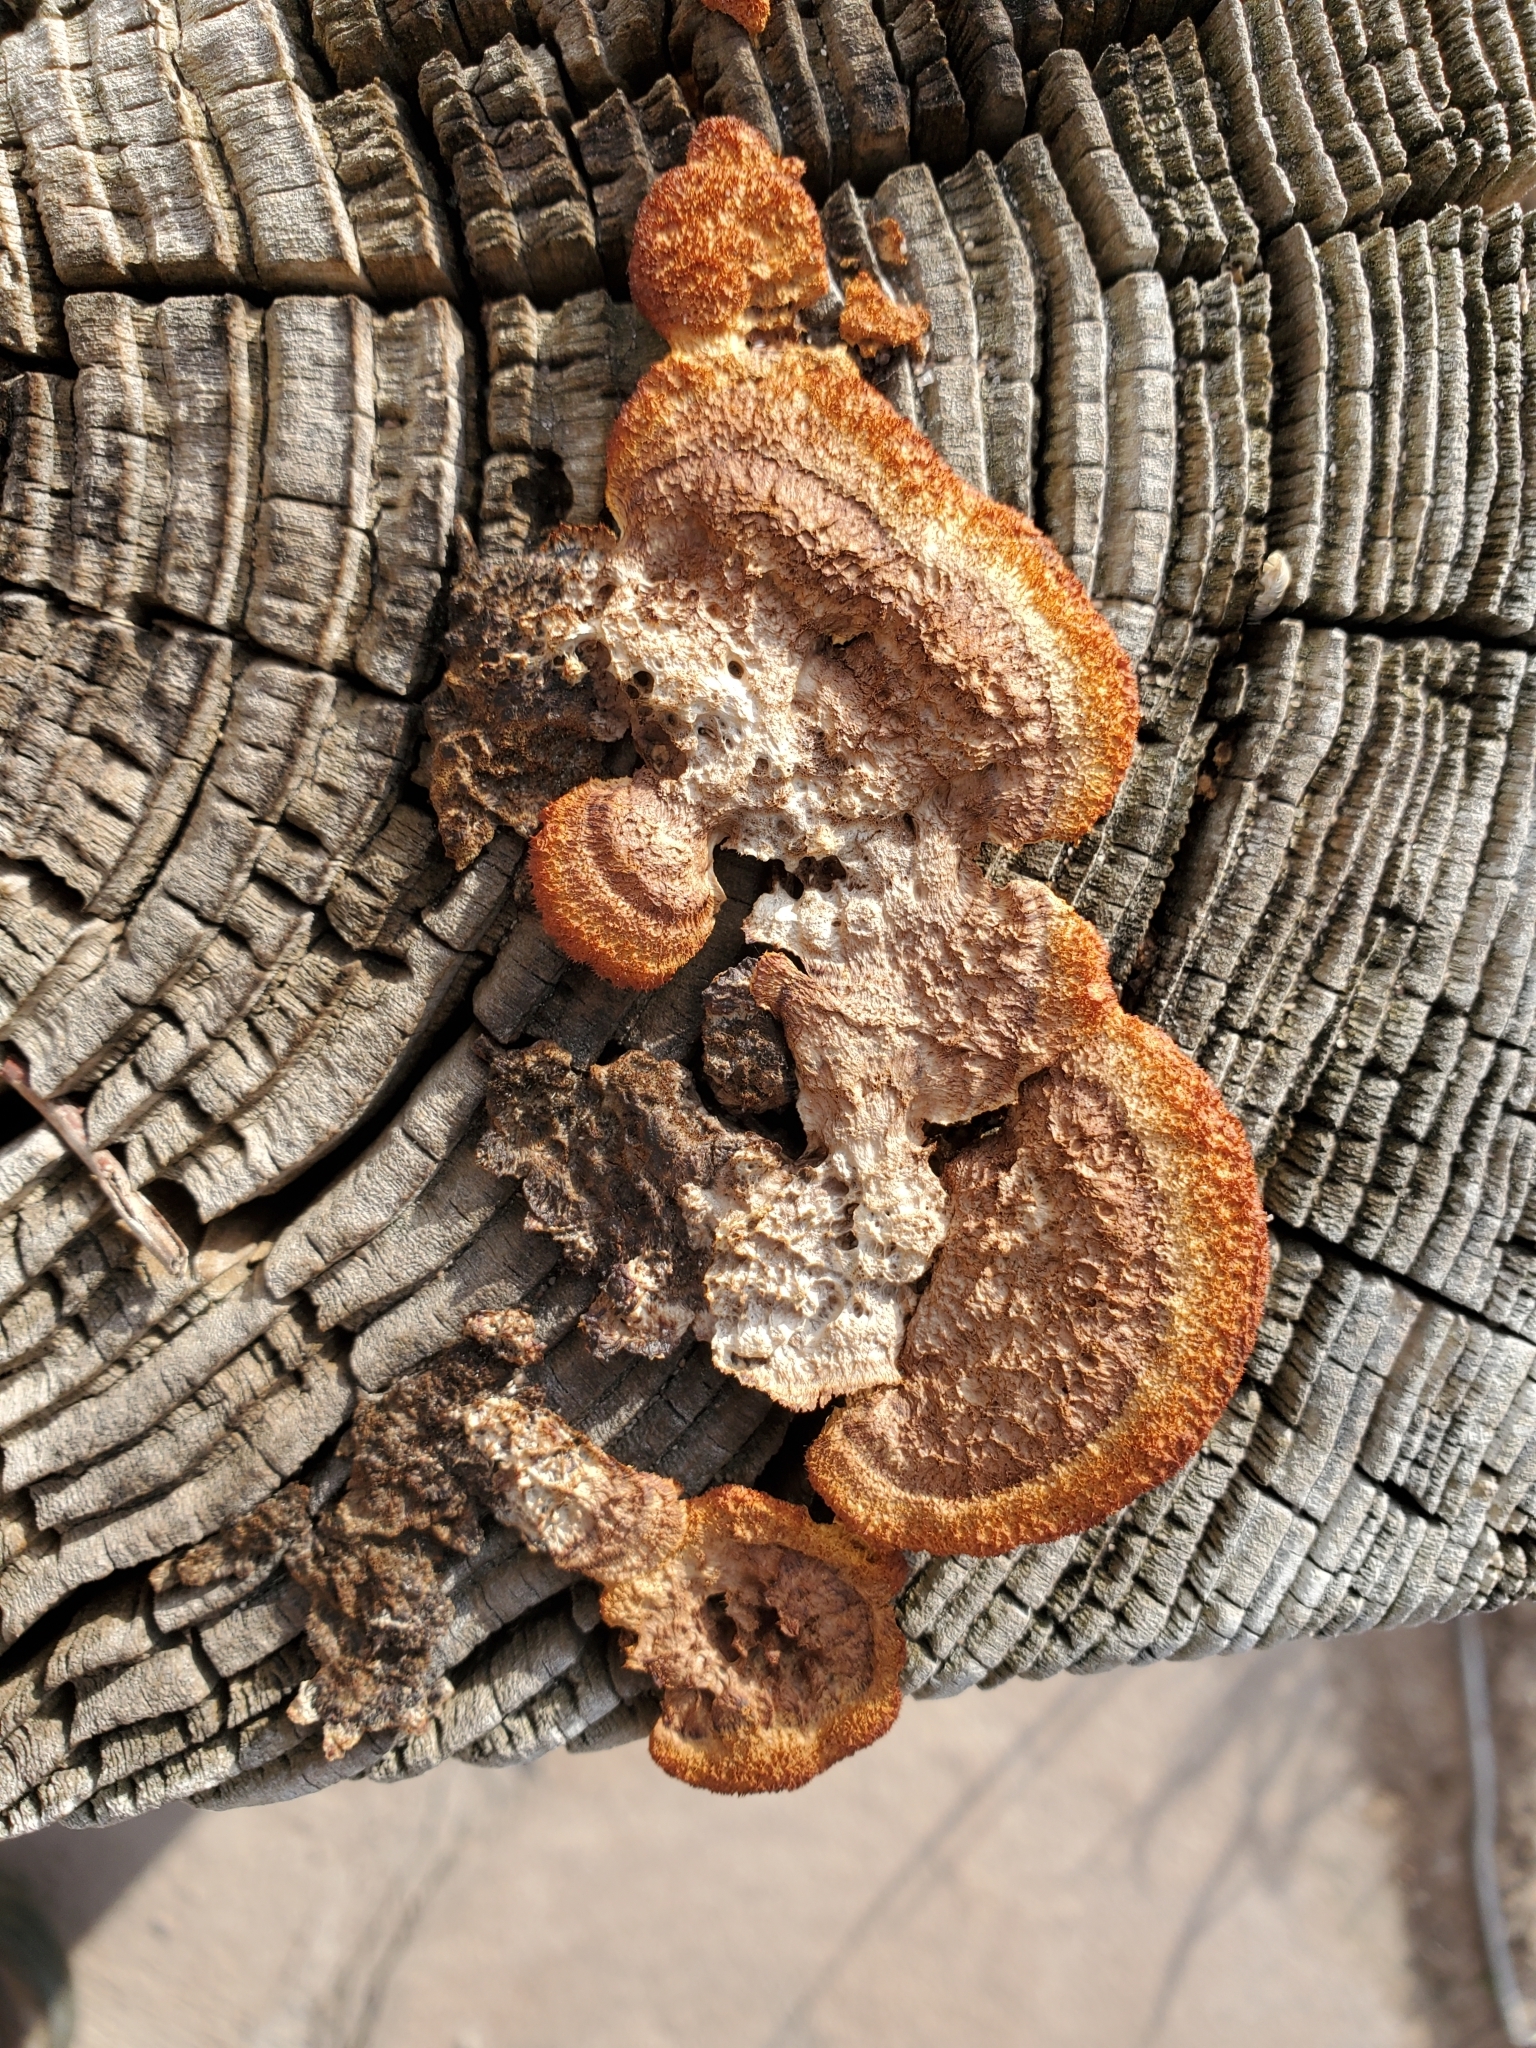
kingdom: Fungi
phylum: Basidiomycota
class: Agaricomycetes
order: Gloeophyllales
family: Gloeophyllaceae
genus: Gloeophyllum
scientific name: Gloeophyllum sepiarium
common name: Conifer mazegill
